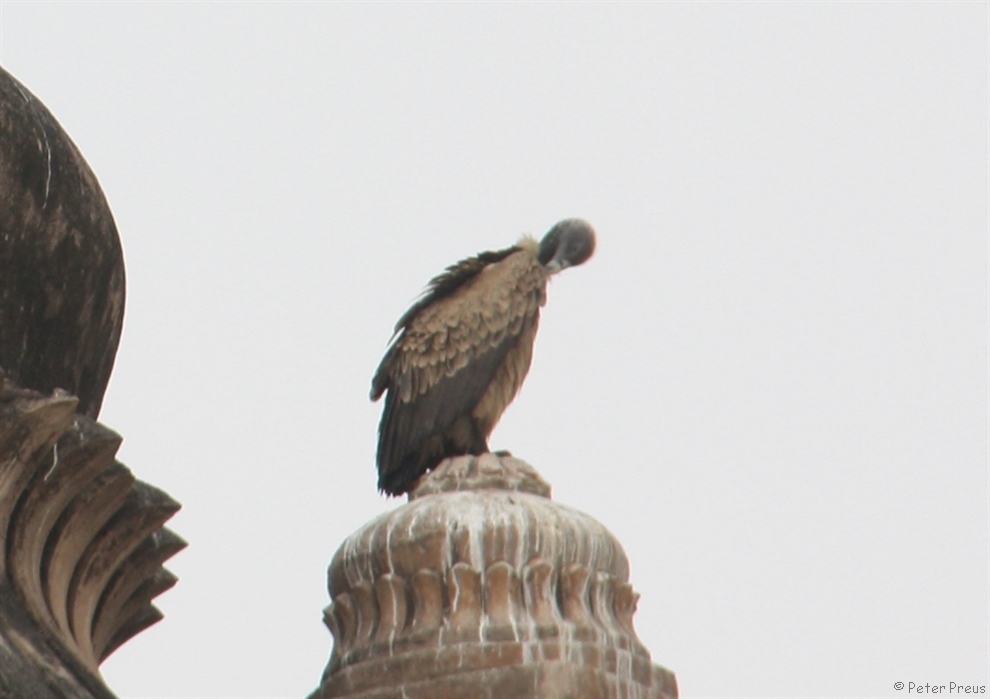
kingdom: Animalia
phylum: Chordata
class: Aves
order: Accipitriformes
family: Accipitridae
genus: Gyps
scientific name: Gyps indicus
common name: Indian vulture
